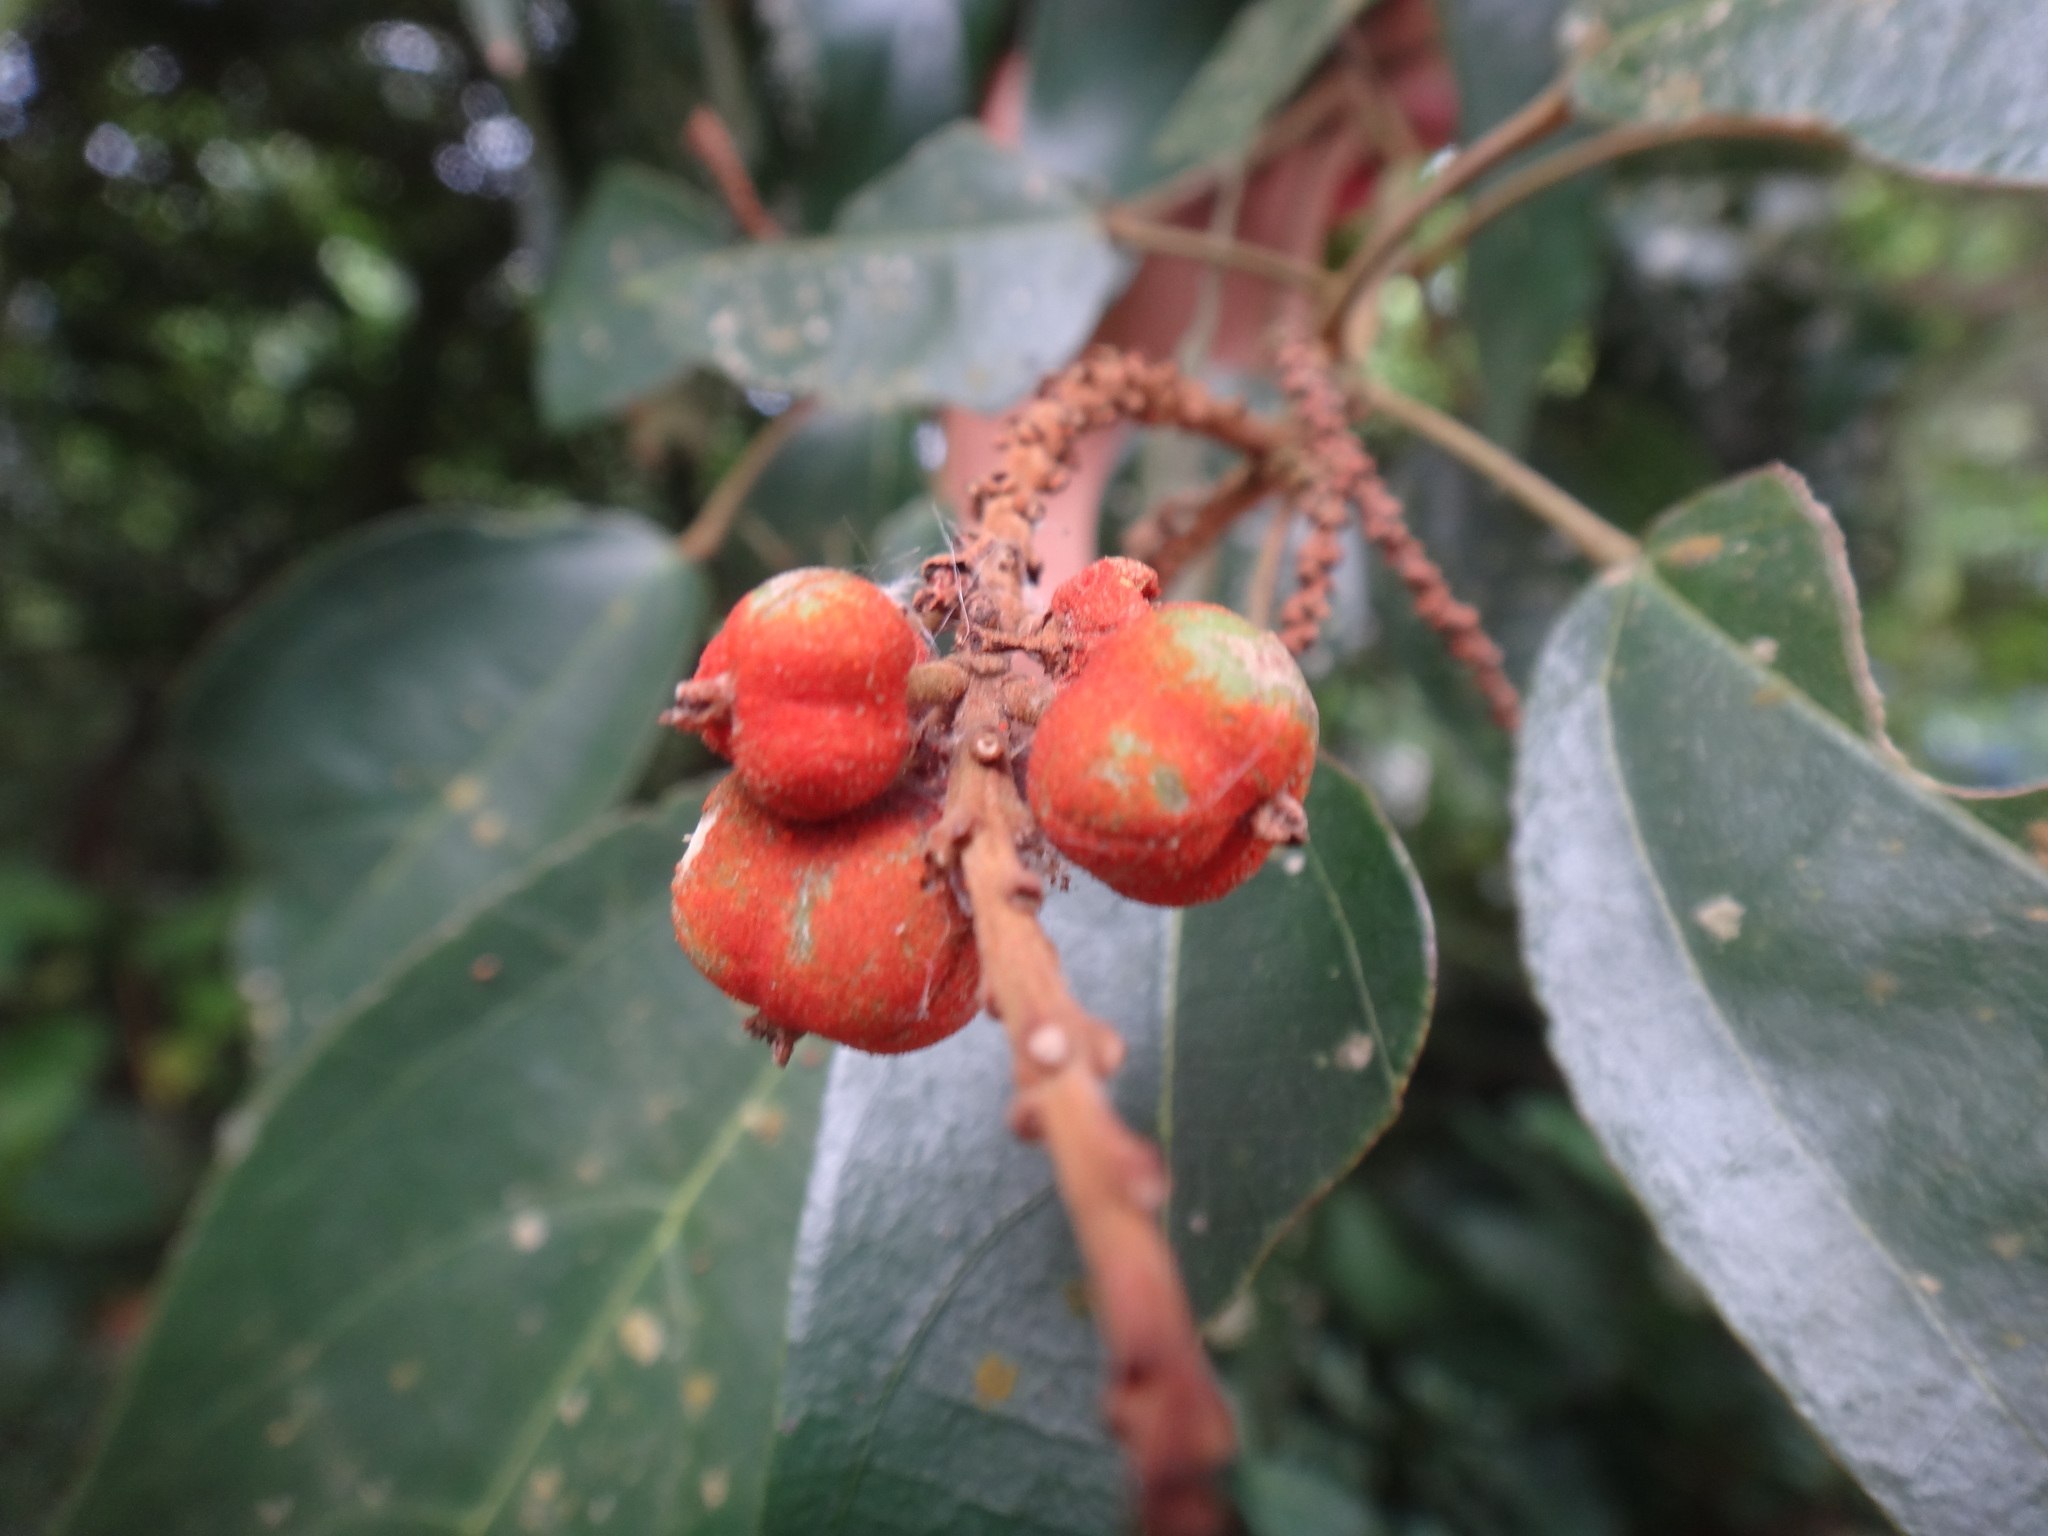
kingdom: Plantae
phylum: Tracheophyta
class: Magnoliopsida
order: Malpighiales
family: Euphorbiaceae
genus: Mallotus
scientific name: Mallotus philippensis
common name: Kamala tree
